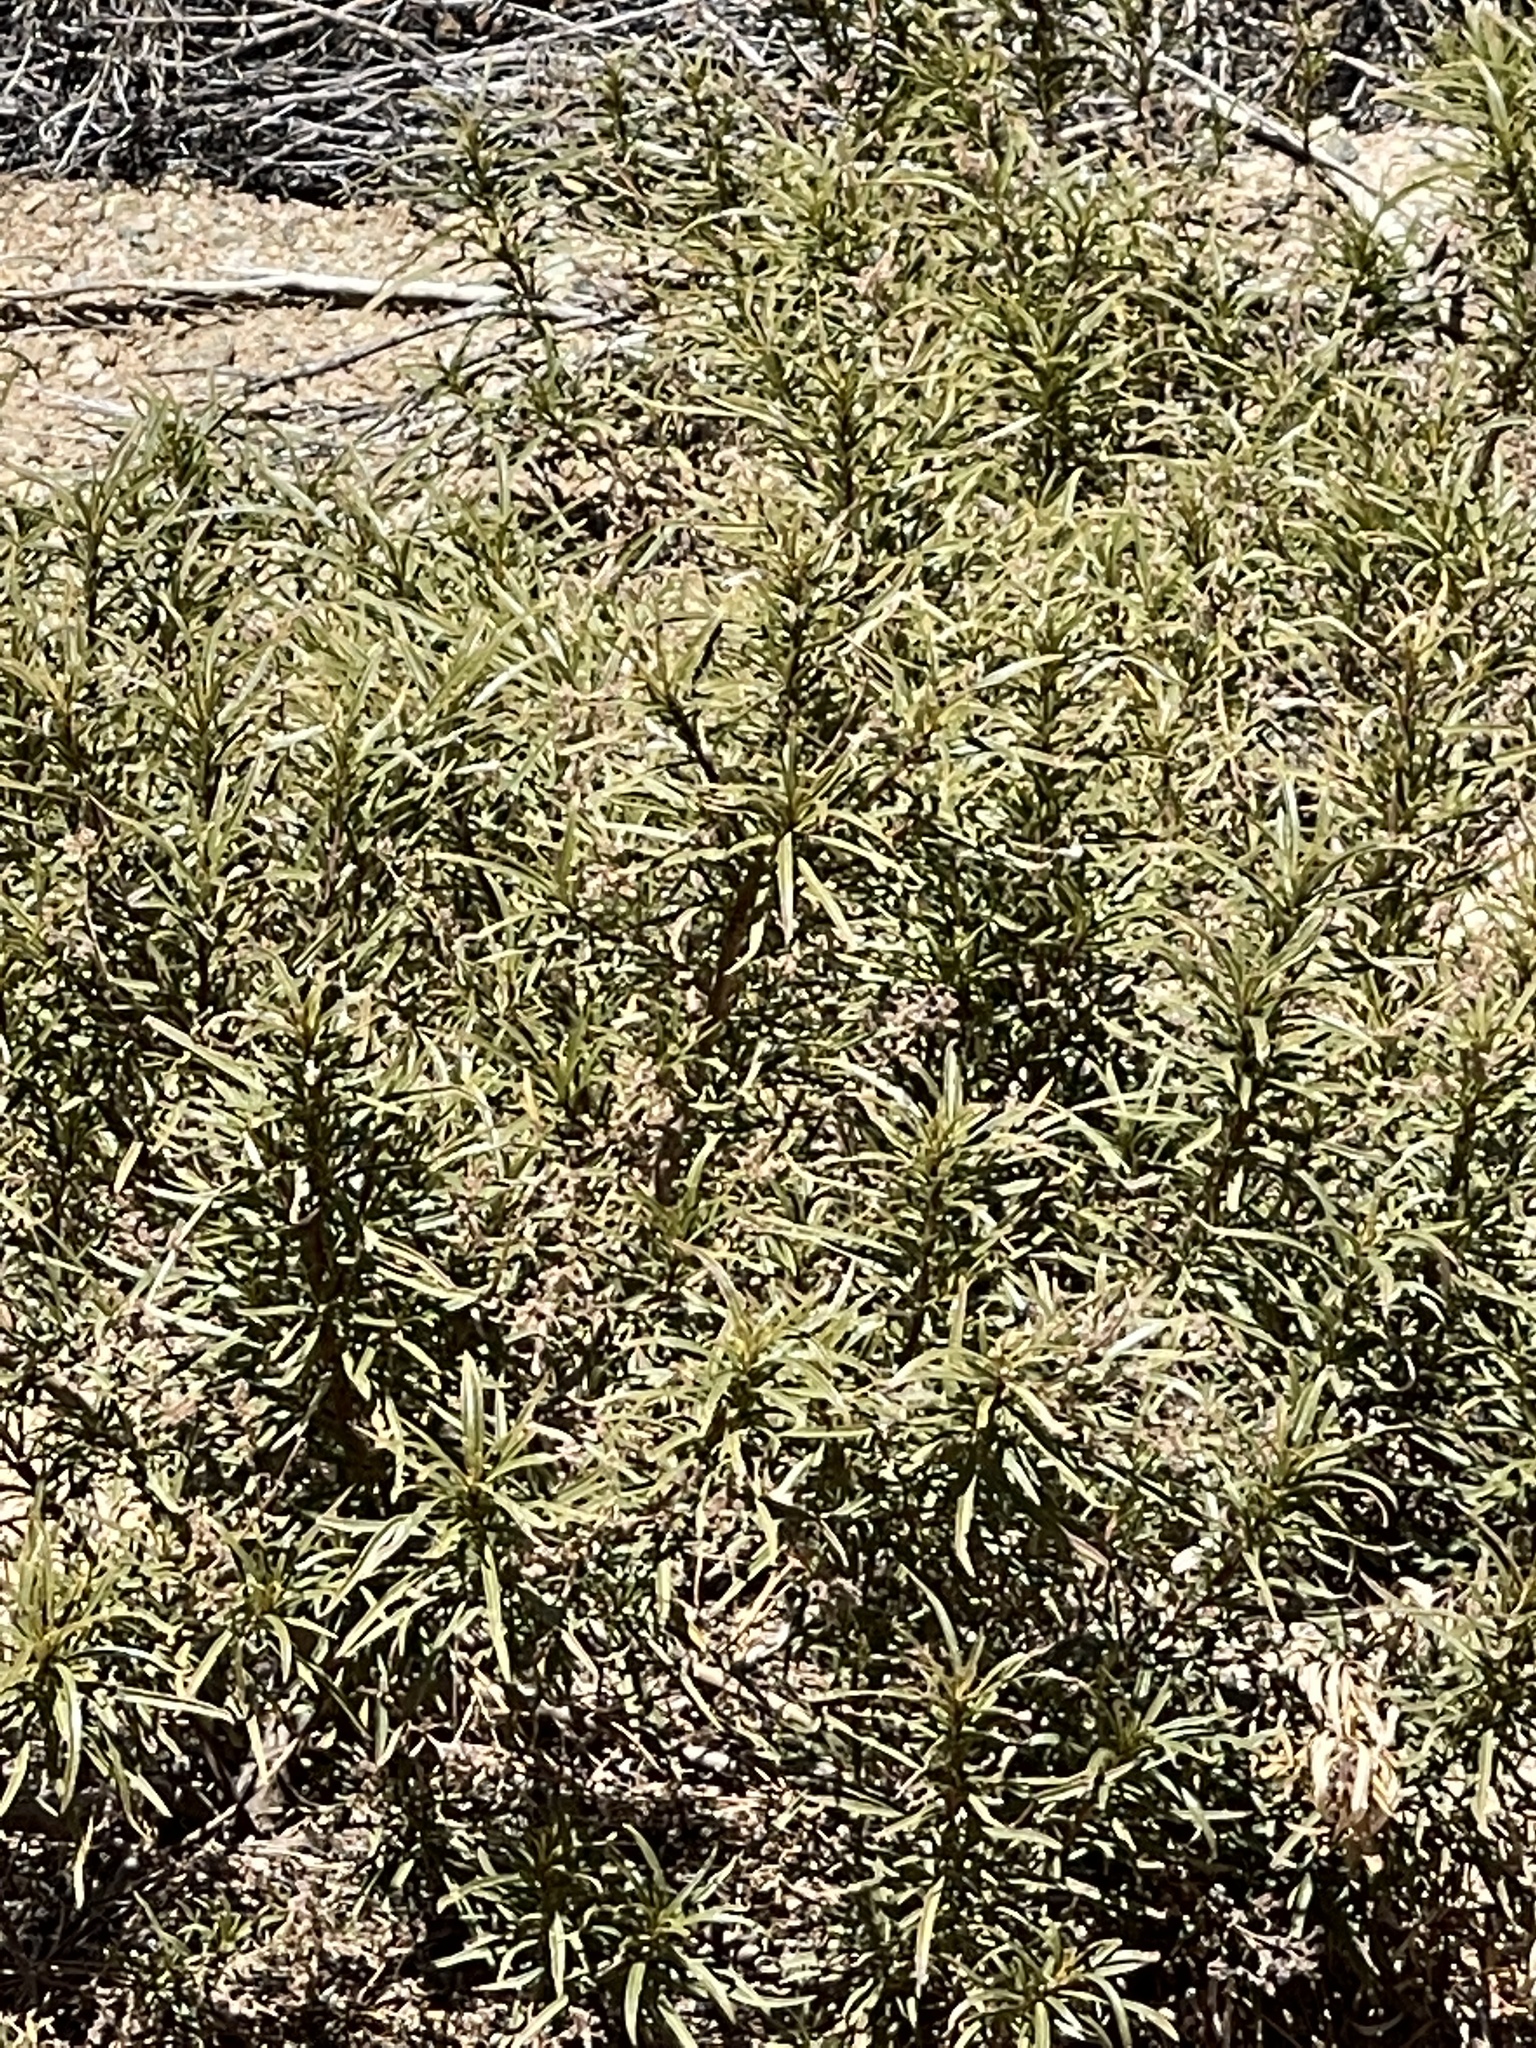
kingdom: Plantae
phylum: Tracheophyta
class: Magnoliopsida
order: Boraginales
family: Namaceae
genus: Eriodictyon
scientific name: Eriodictyon angustifolium
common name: Narrow-leaf yerba santa
